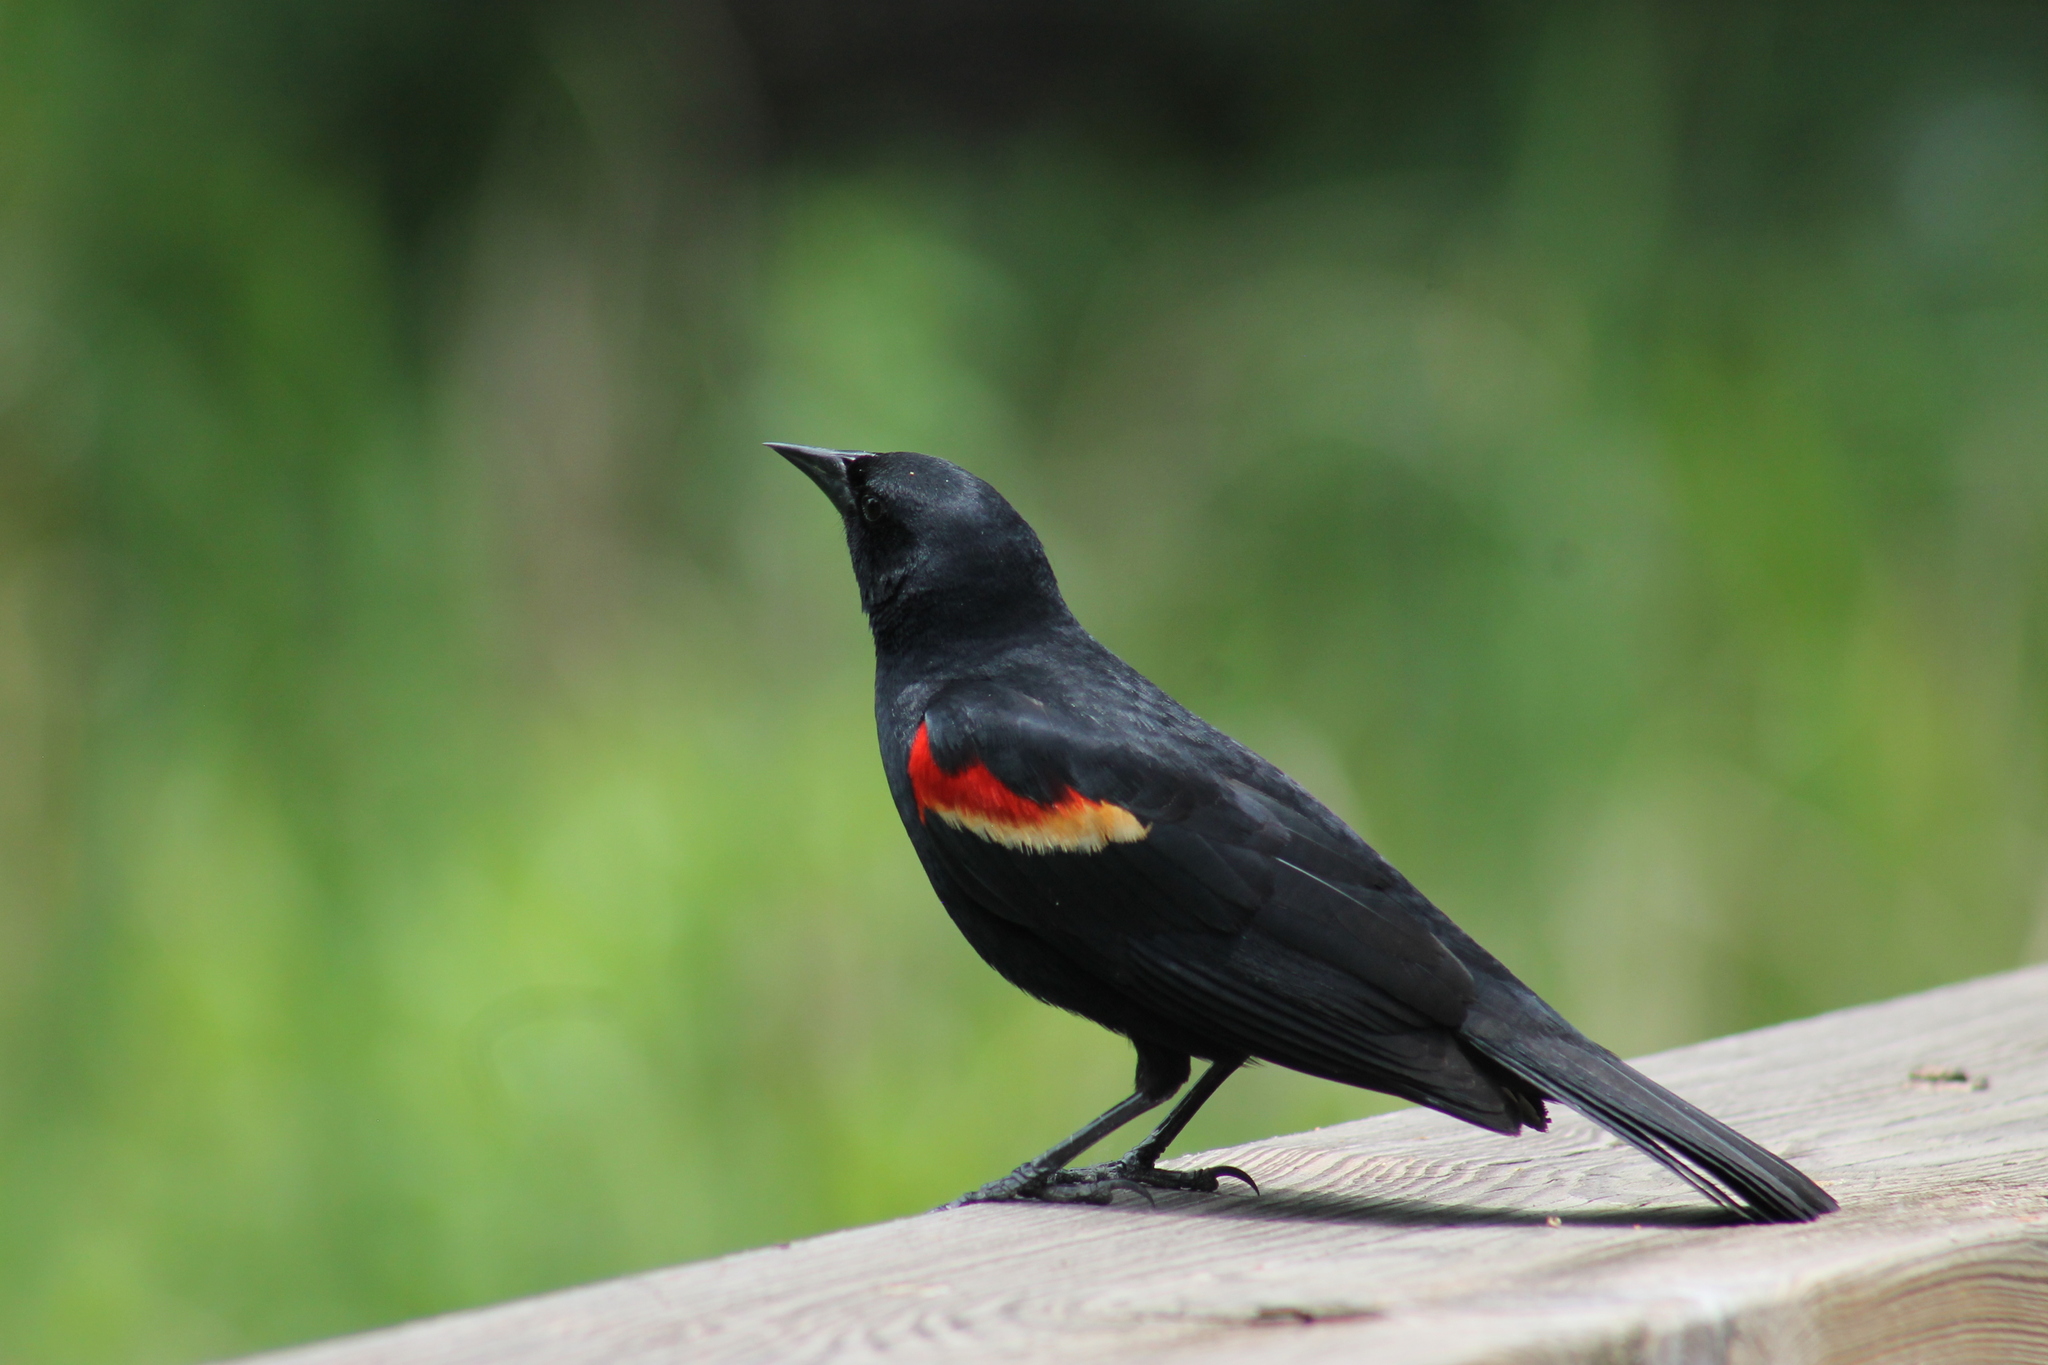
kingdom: Animalia
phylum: Chordata
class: Aves
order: Passeriformes
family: Icteridae
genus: Agelaius
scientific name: Agelaius phoeniceus
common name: Red-winged blackbird
